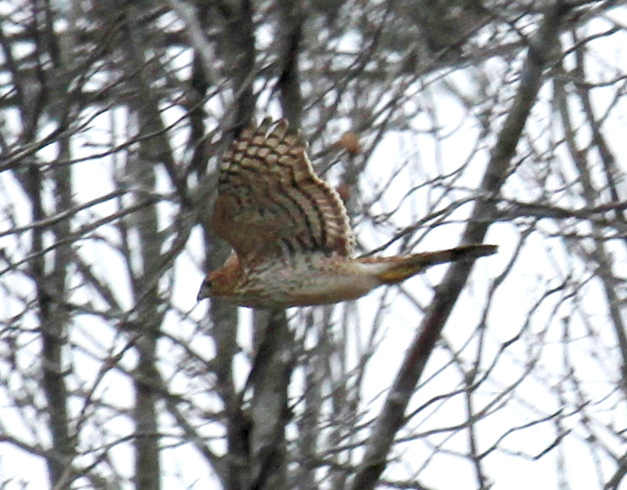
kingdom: Animalia
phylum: Chordata
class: Aves
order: Accipitriformes
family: Accipitridae
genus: Accipiter
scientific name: Accipiter cooperii
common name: Cooper's hawk
